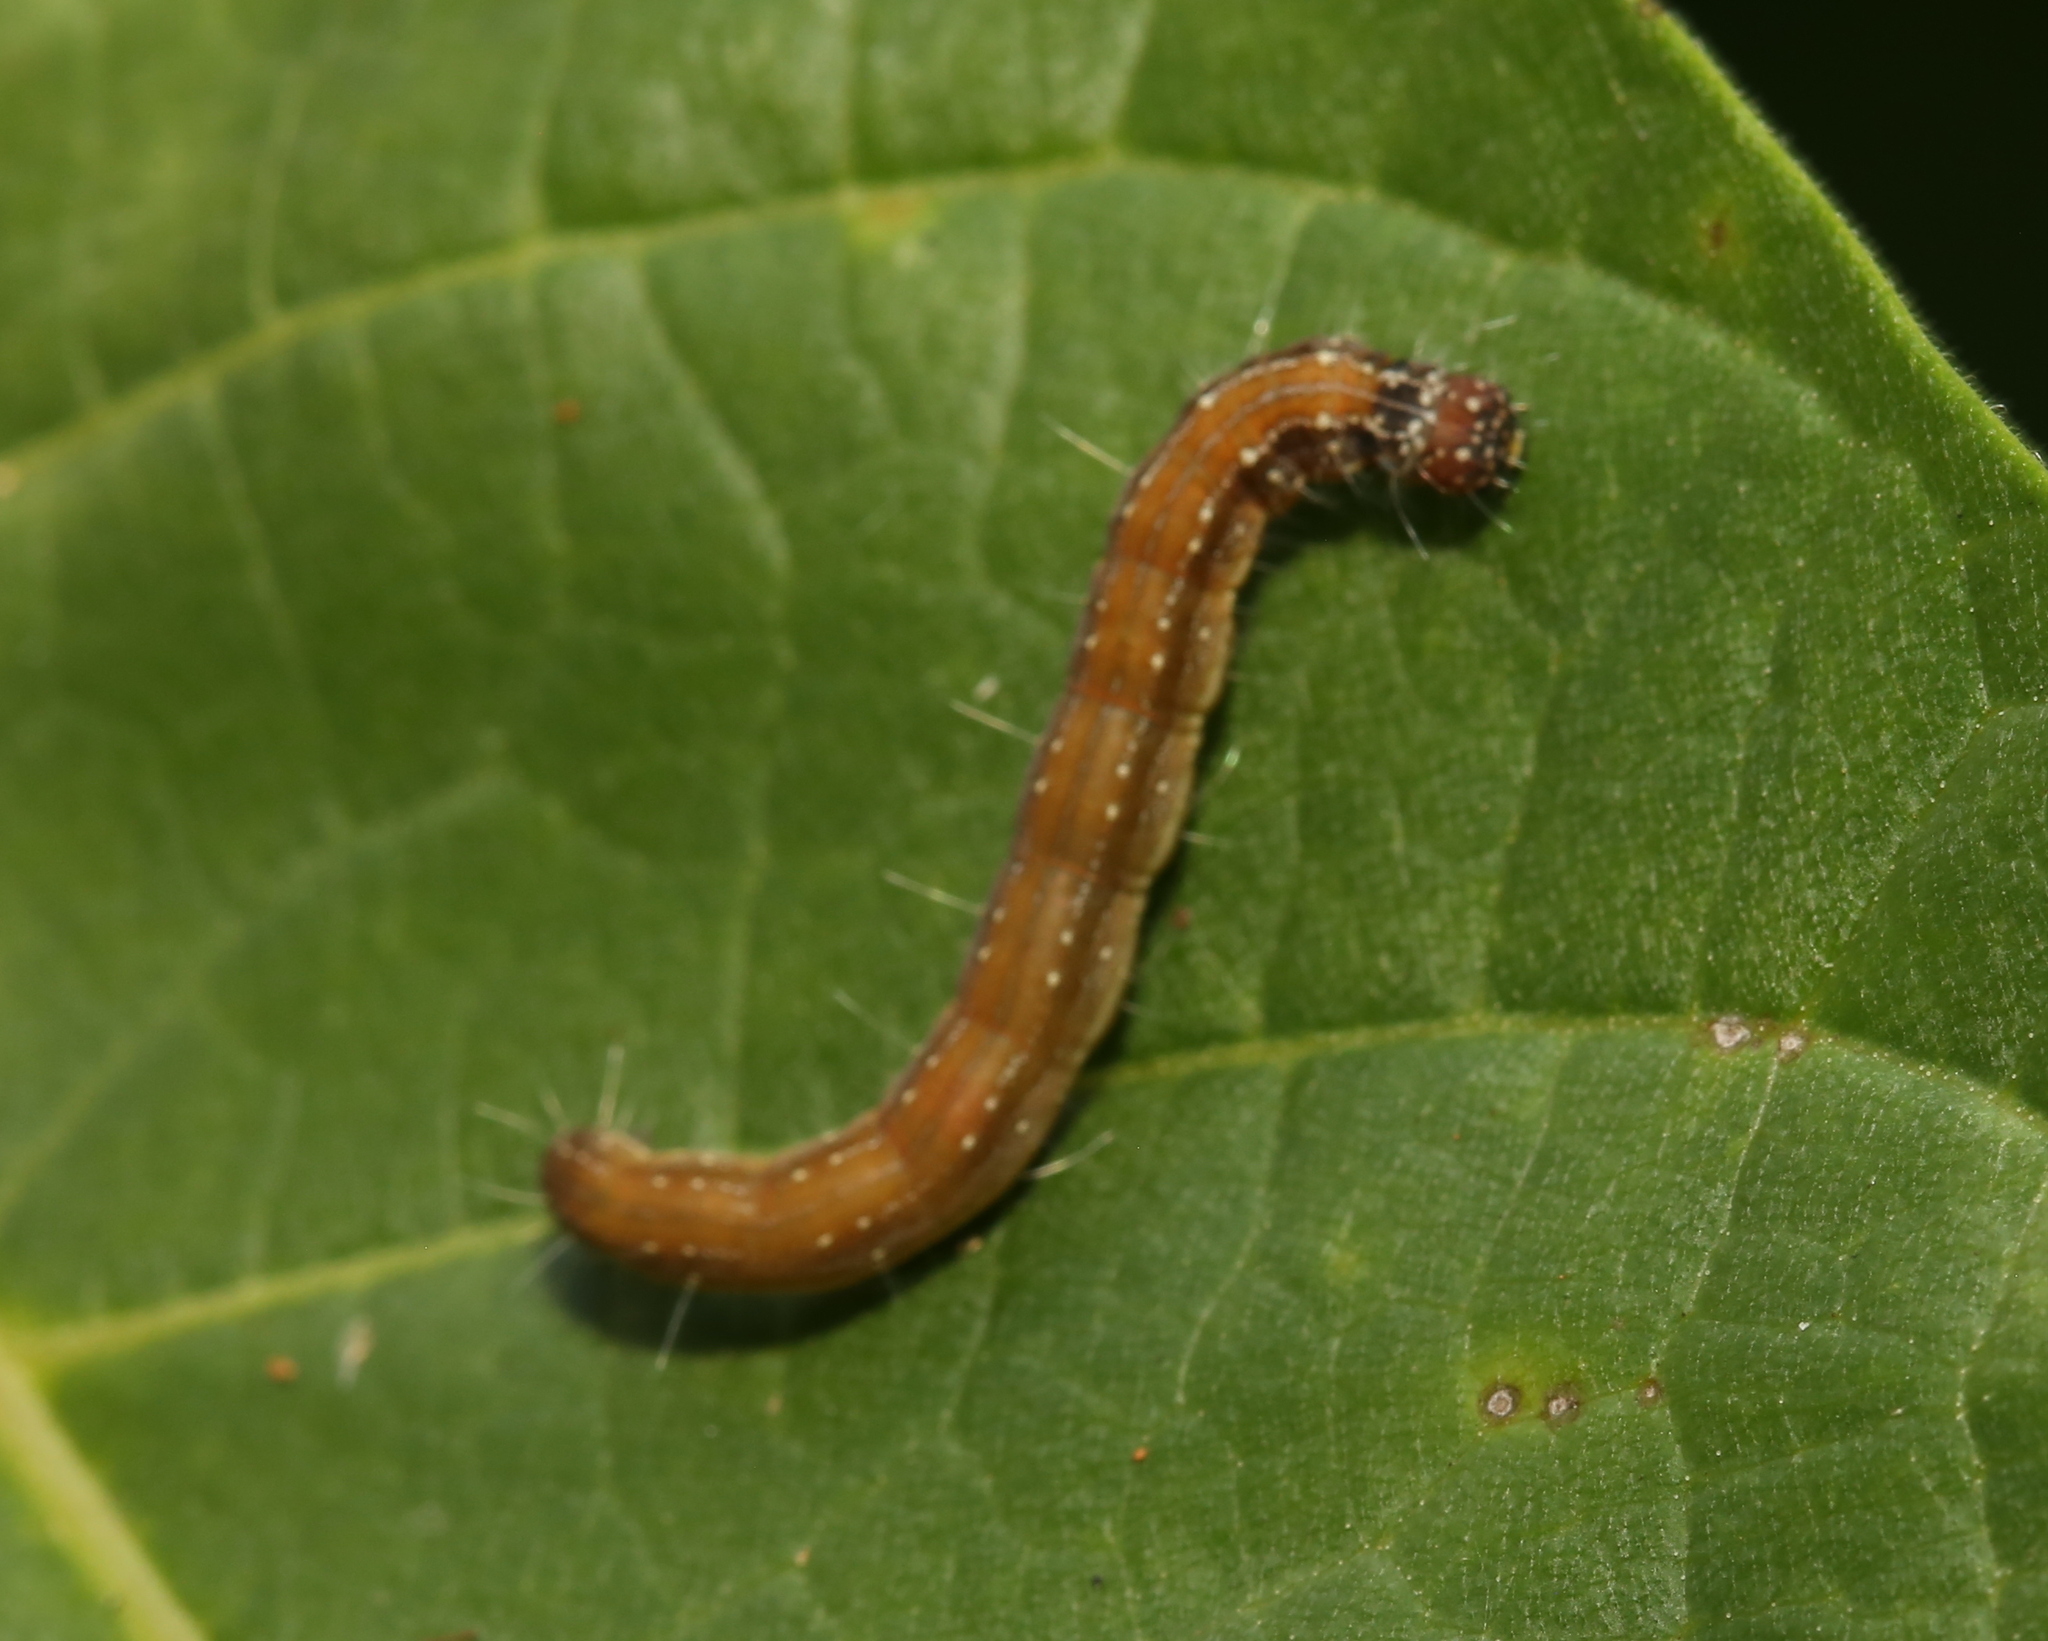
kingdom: Animalia
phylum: Arthropoda
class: Insecta
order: Lepidoptera
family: Attevidae
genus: Atteva
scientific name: Atteva punctella
